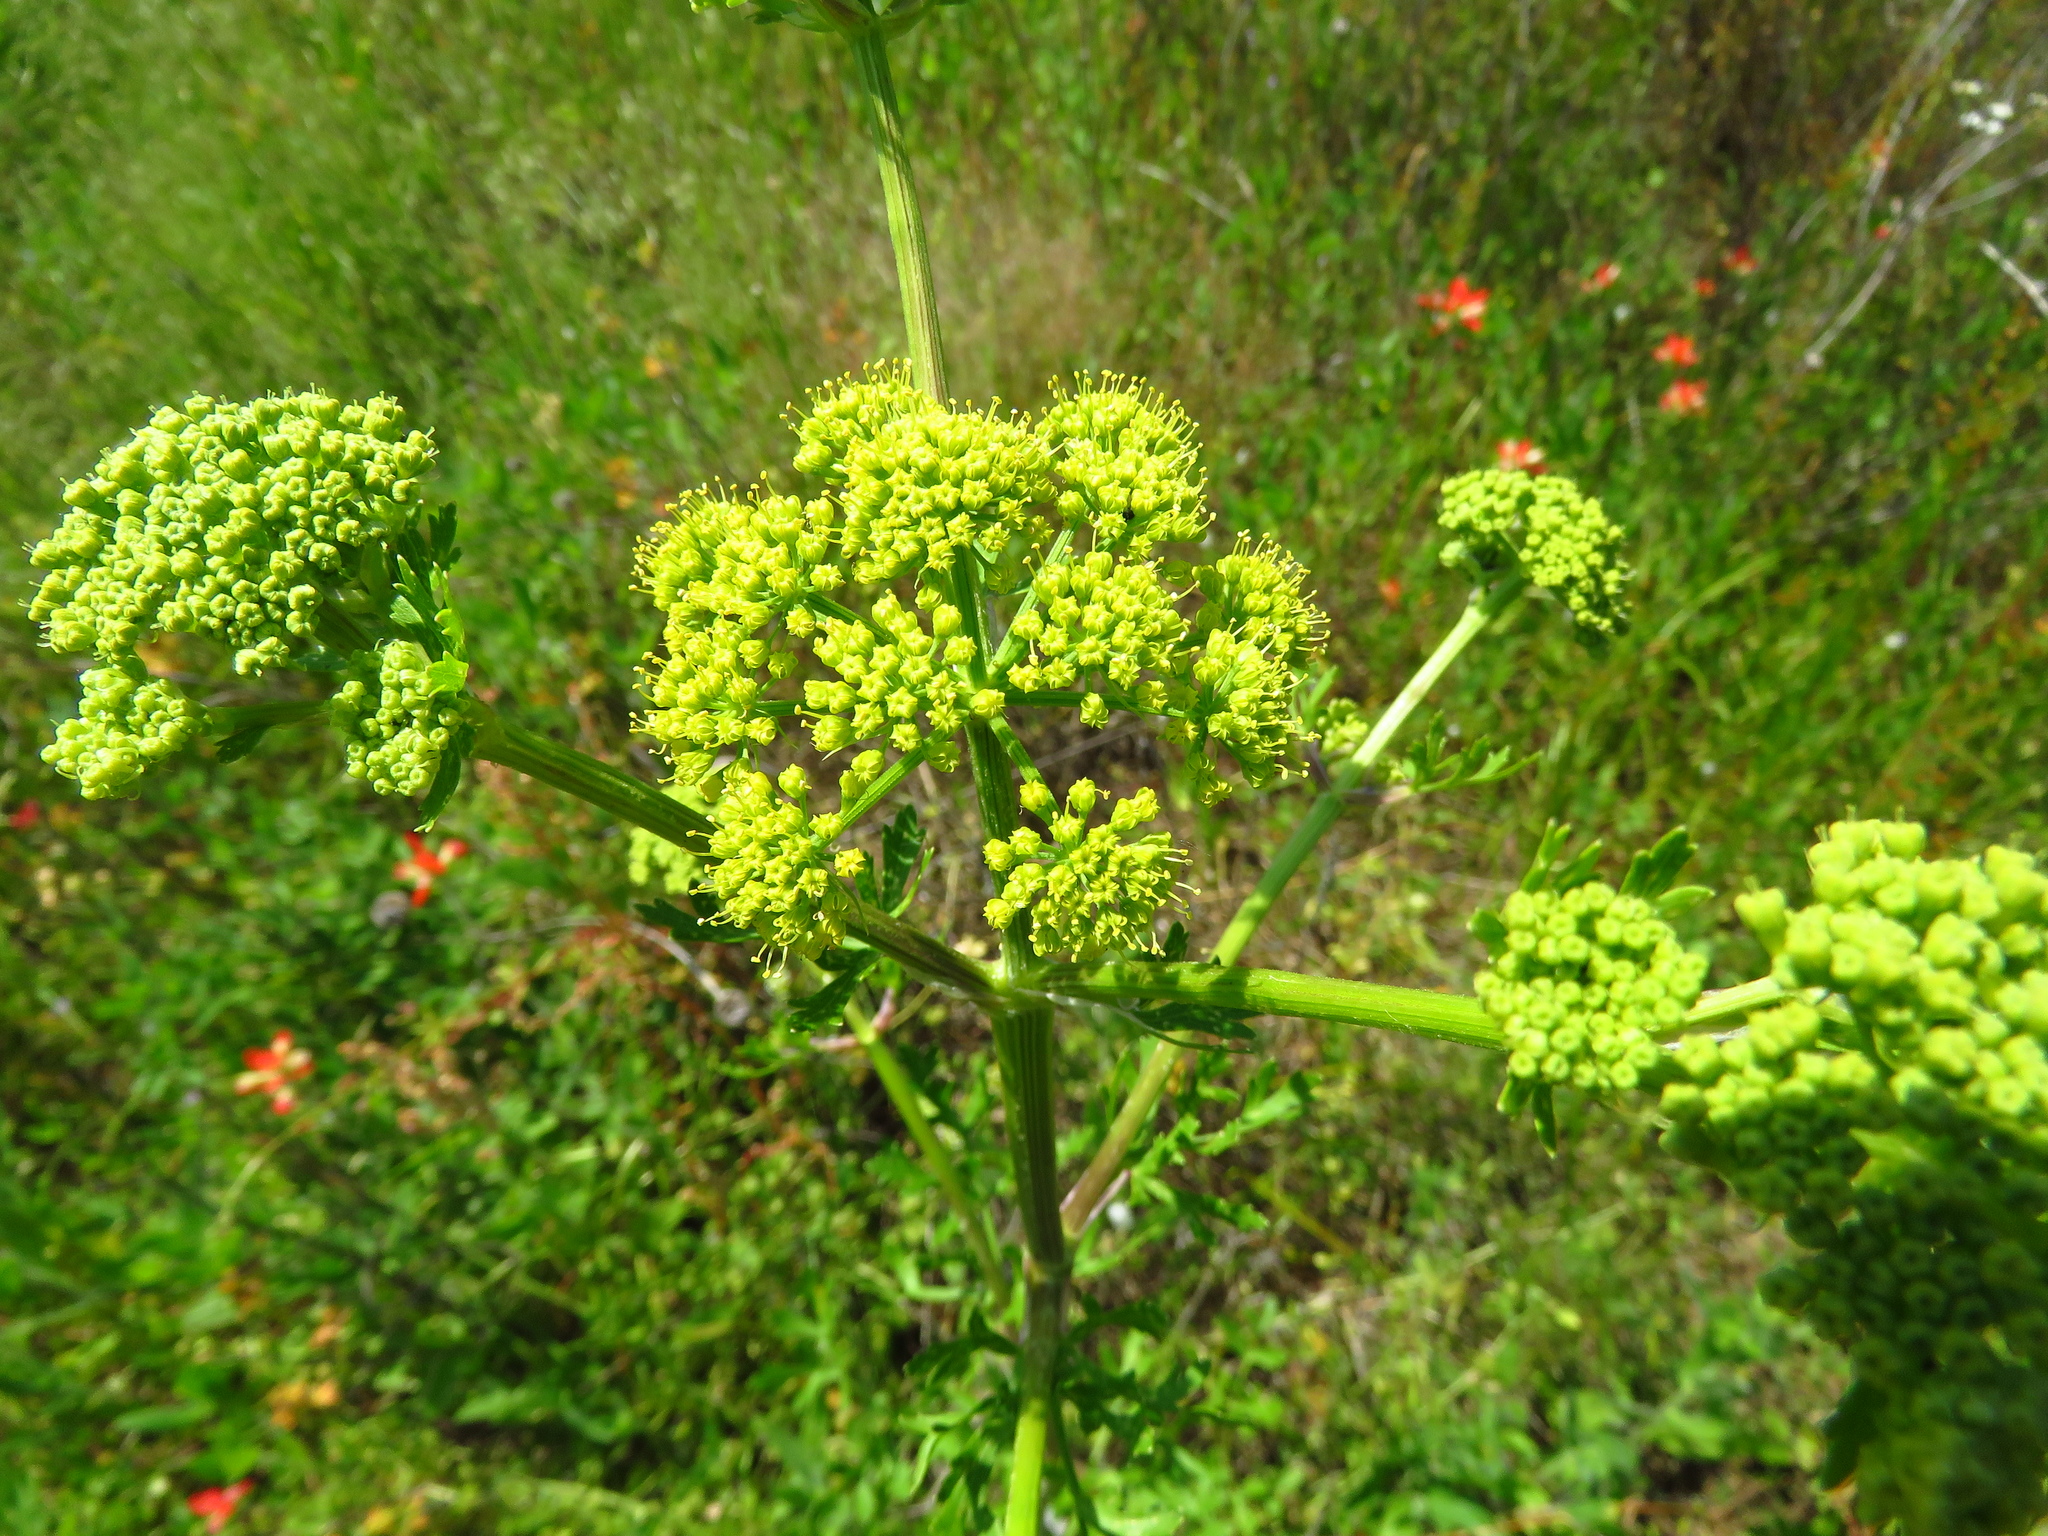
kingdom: Plantae
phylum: Tracheophyta
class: Magnoliopsida
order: Apiales
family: Apiaceae
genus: Polytaenia
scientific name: Polytaenia texana
